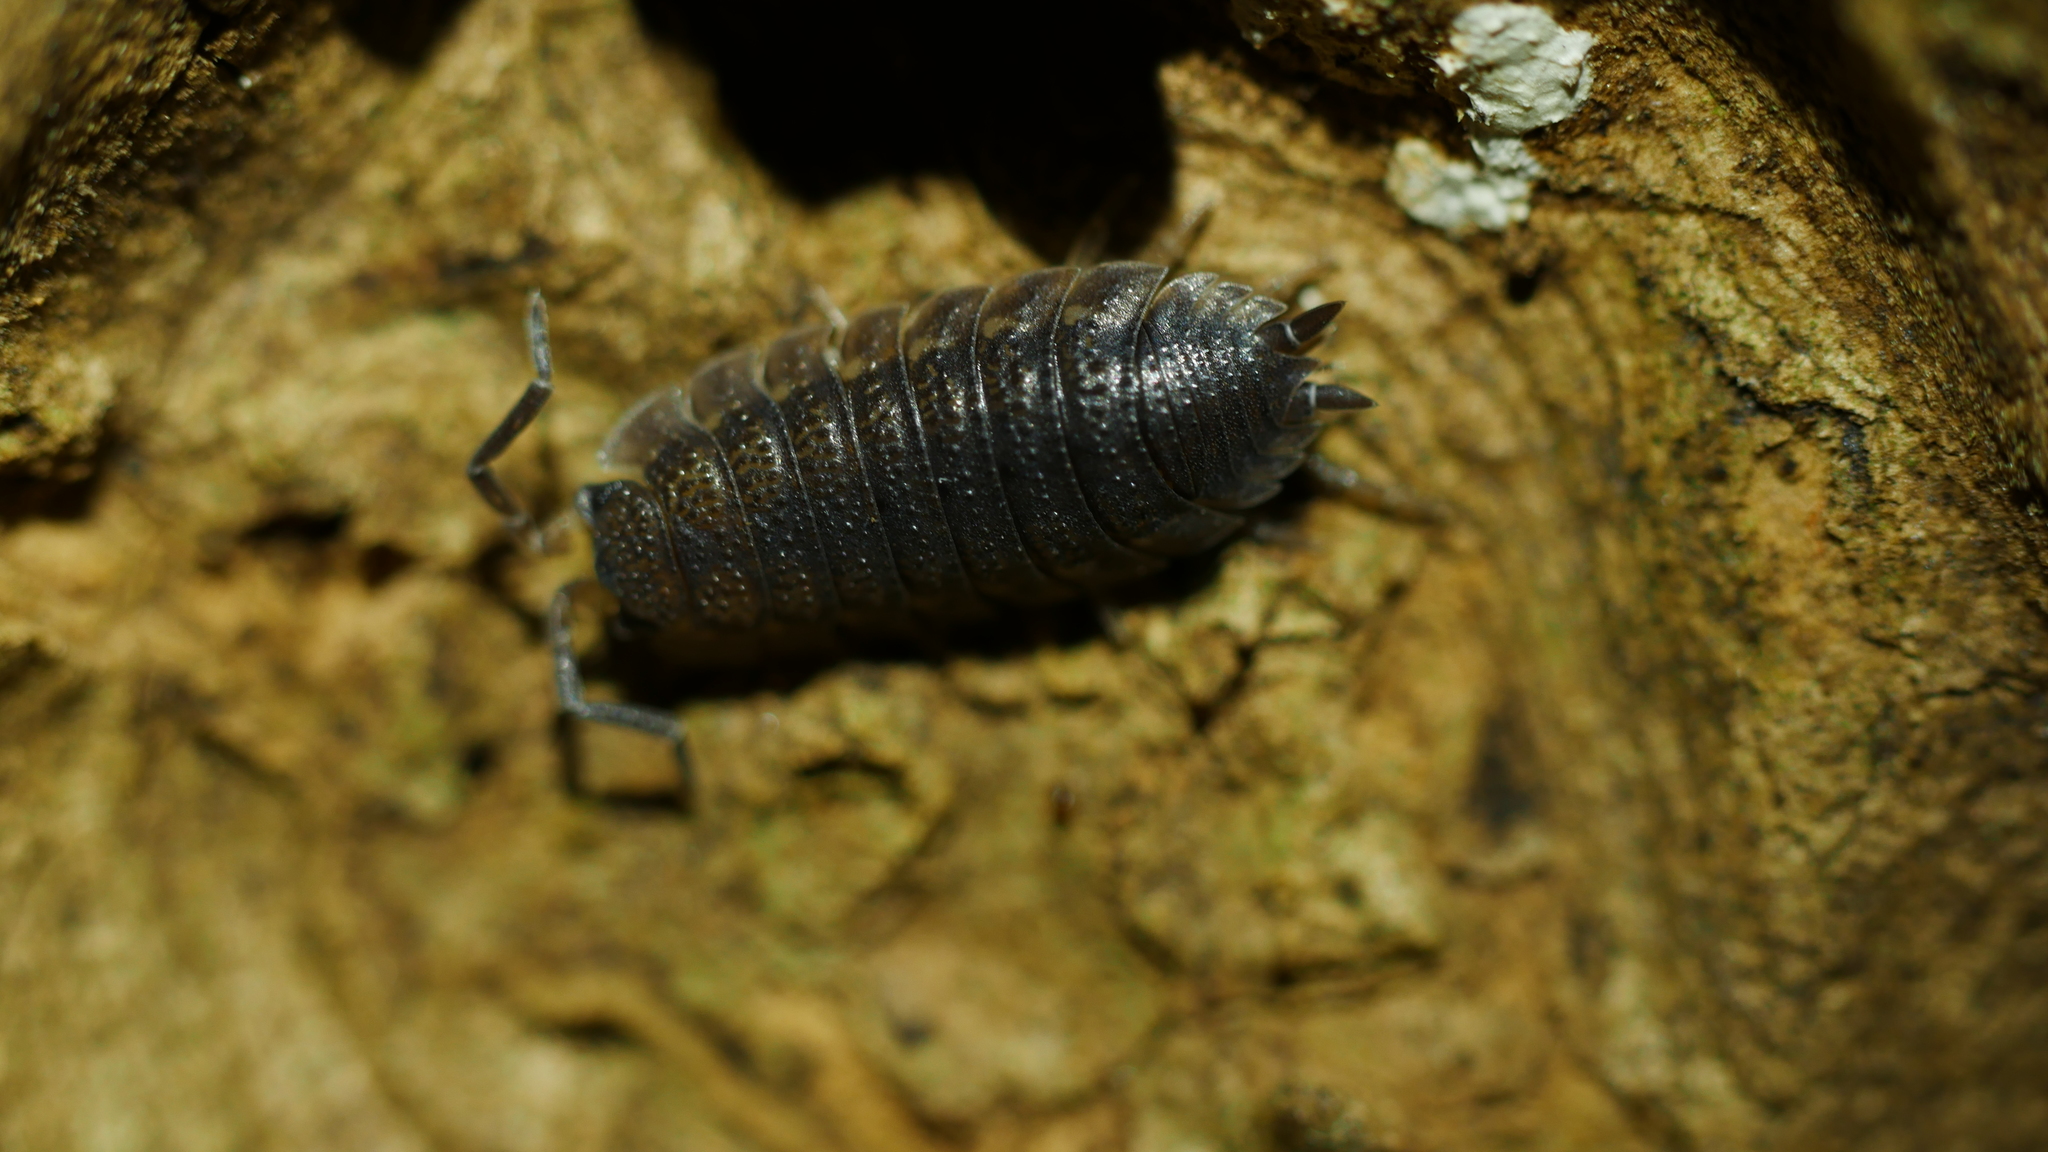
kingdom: Animalia
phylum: Arthropoda
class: Malacostraca
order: Isopoda
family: Porcellionidae
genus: Porcellio
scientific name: Porcellio scaber
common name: Common rough woodlouse
